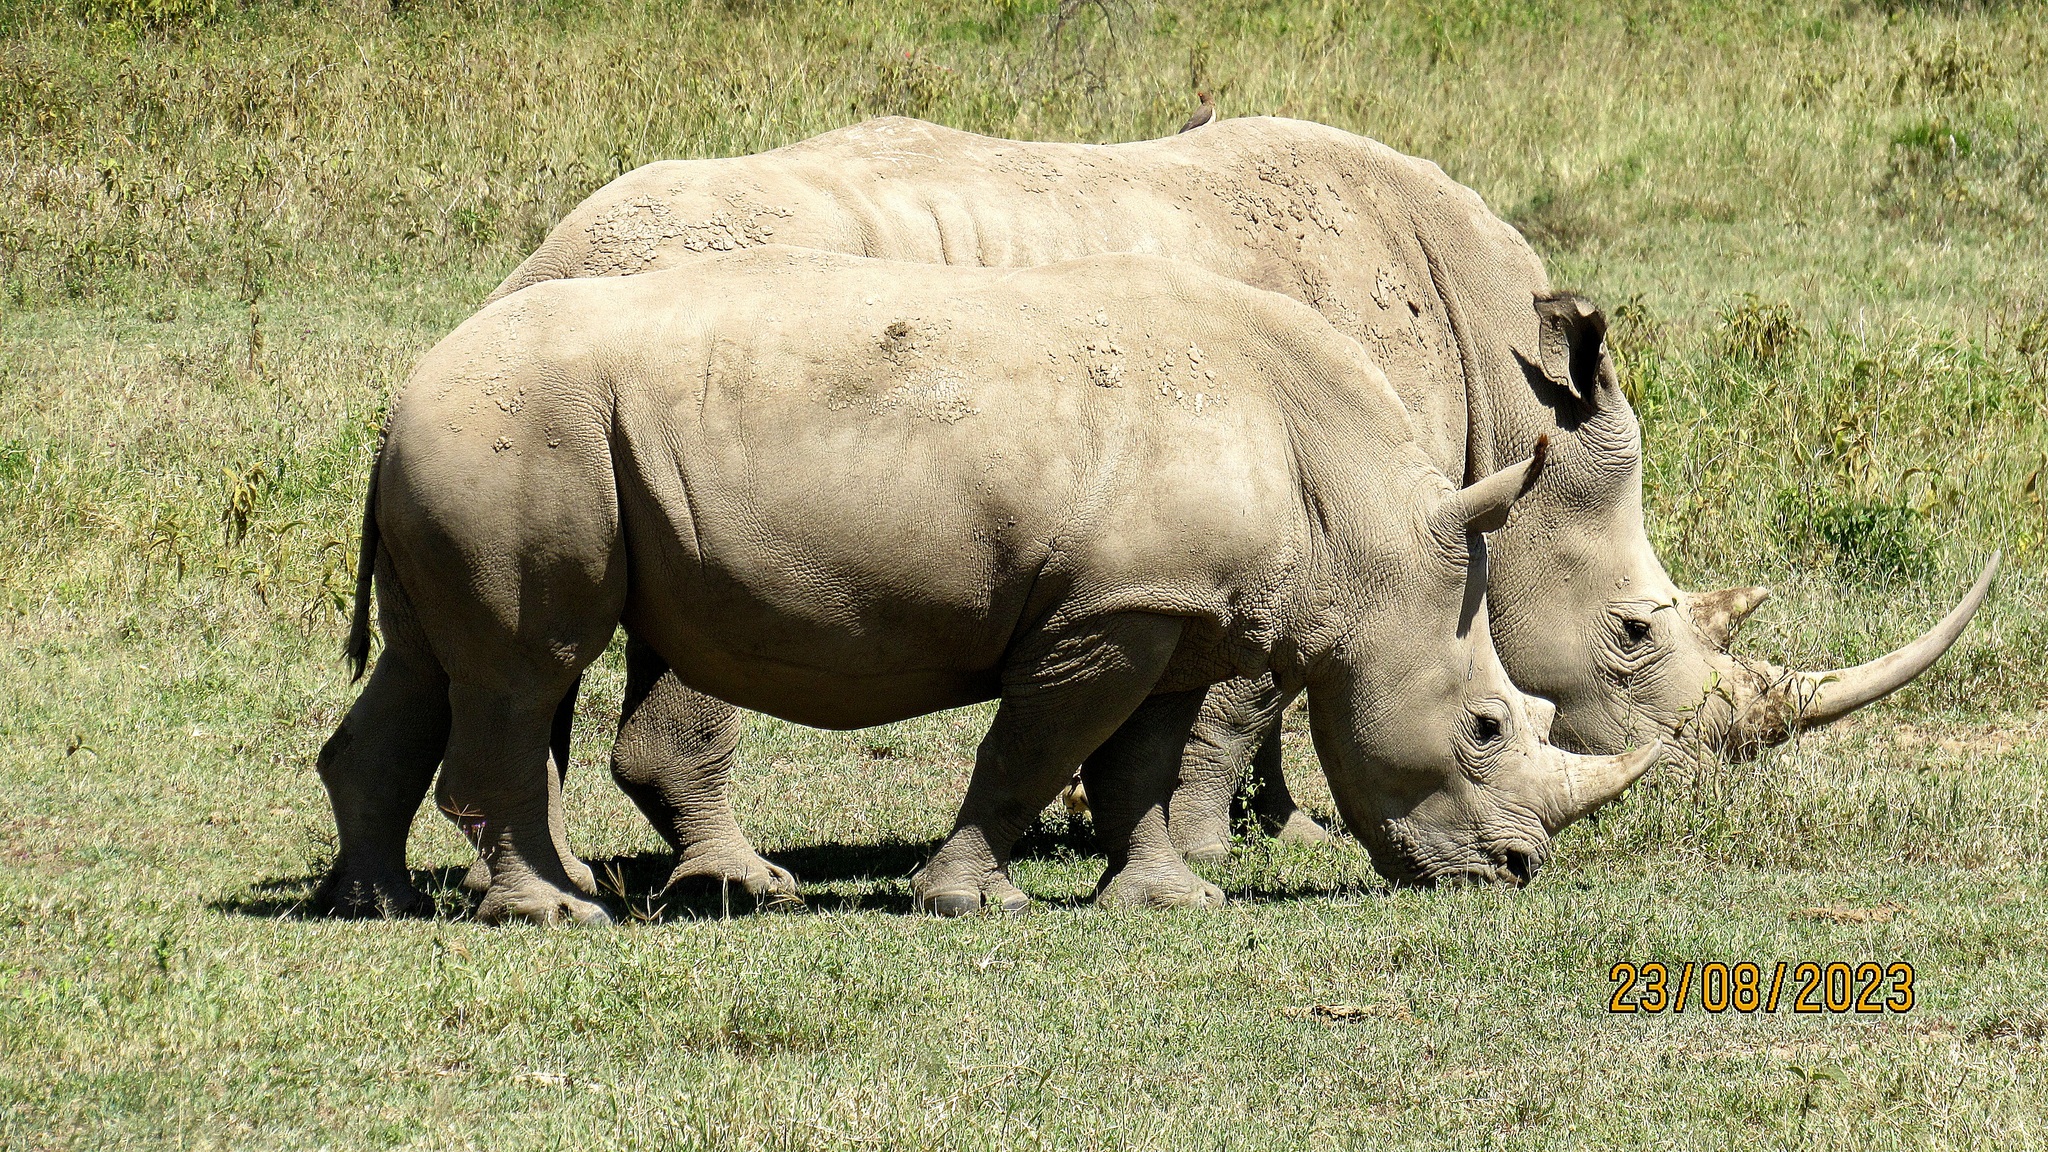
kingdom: Animalia
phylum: Chordata
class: Mammalia
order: Perissodactyla
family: Rhinocerotidae
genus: Ceratotherium
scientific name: Ceratotherium simum
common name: White rhinoceros
